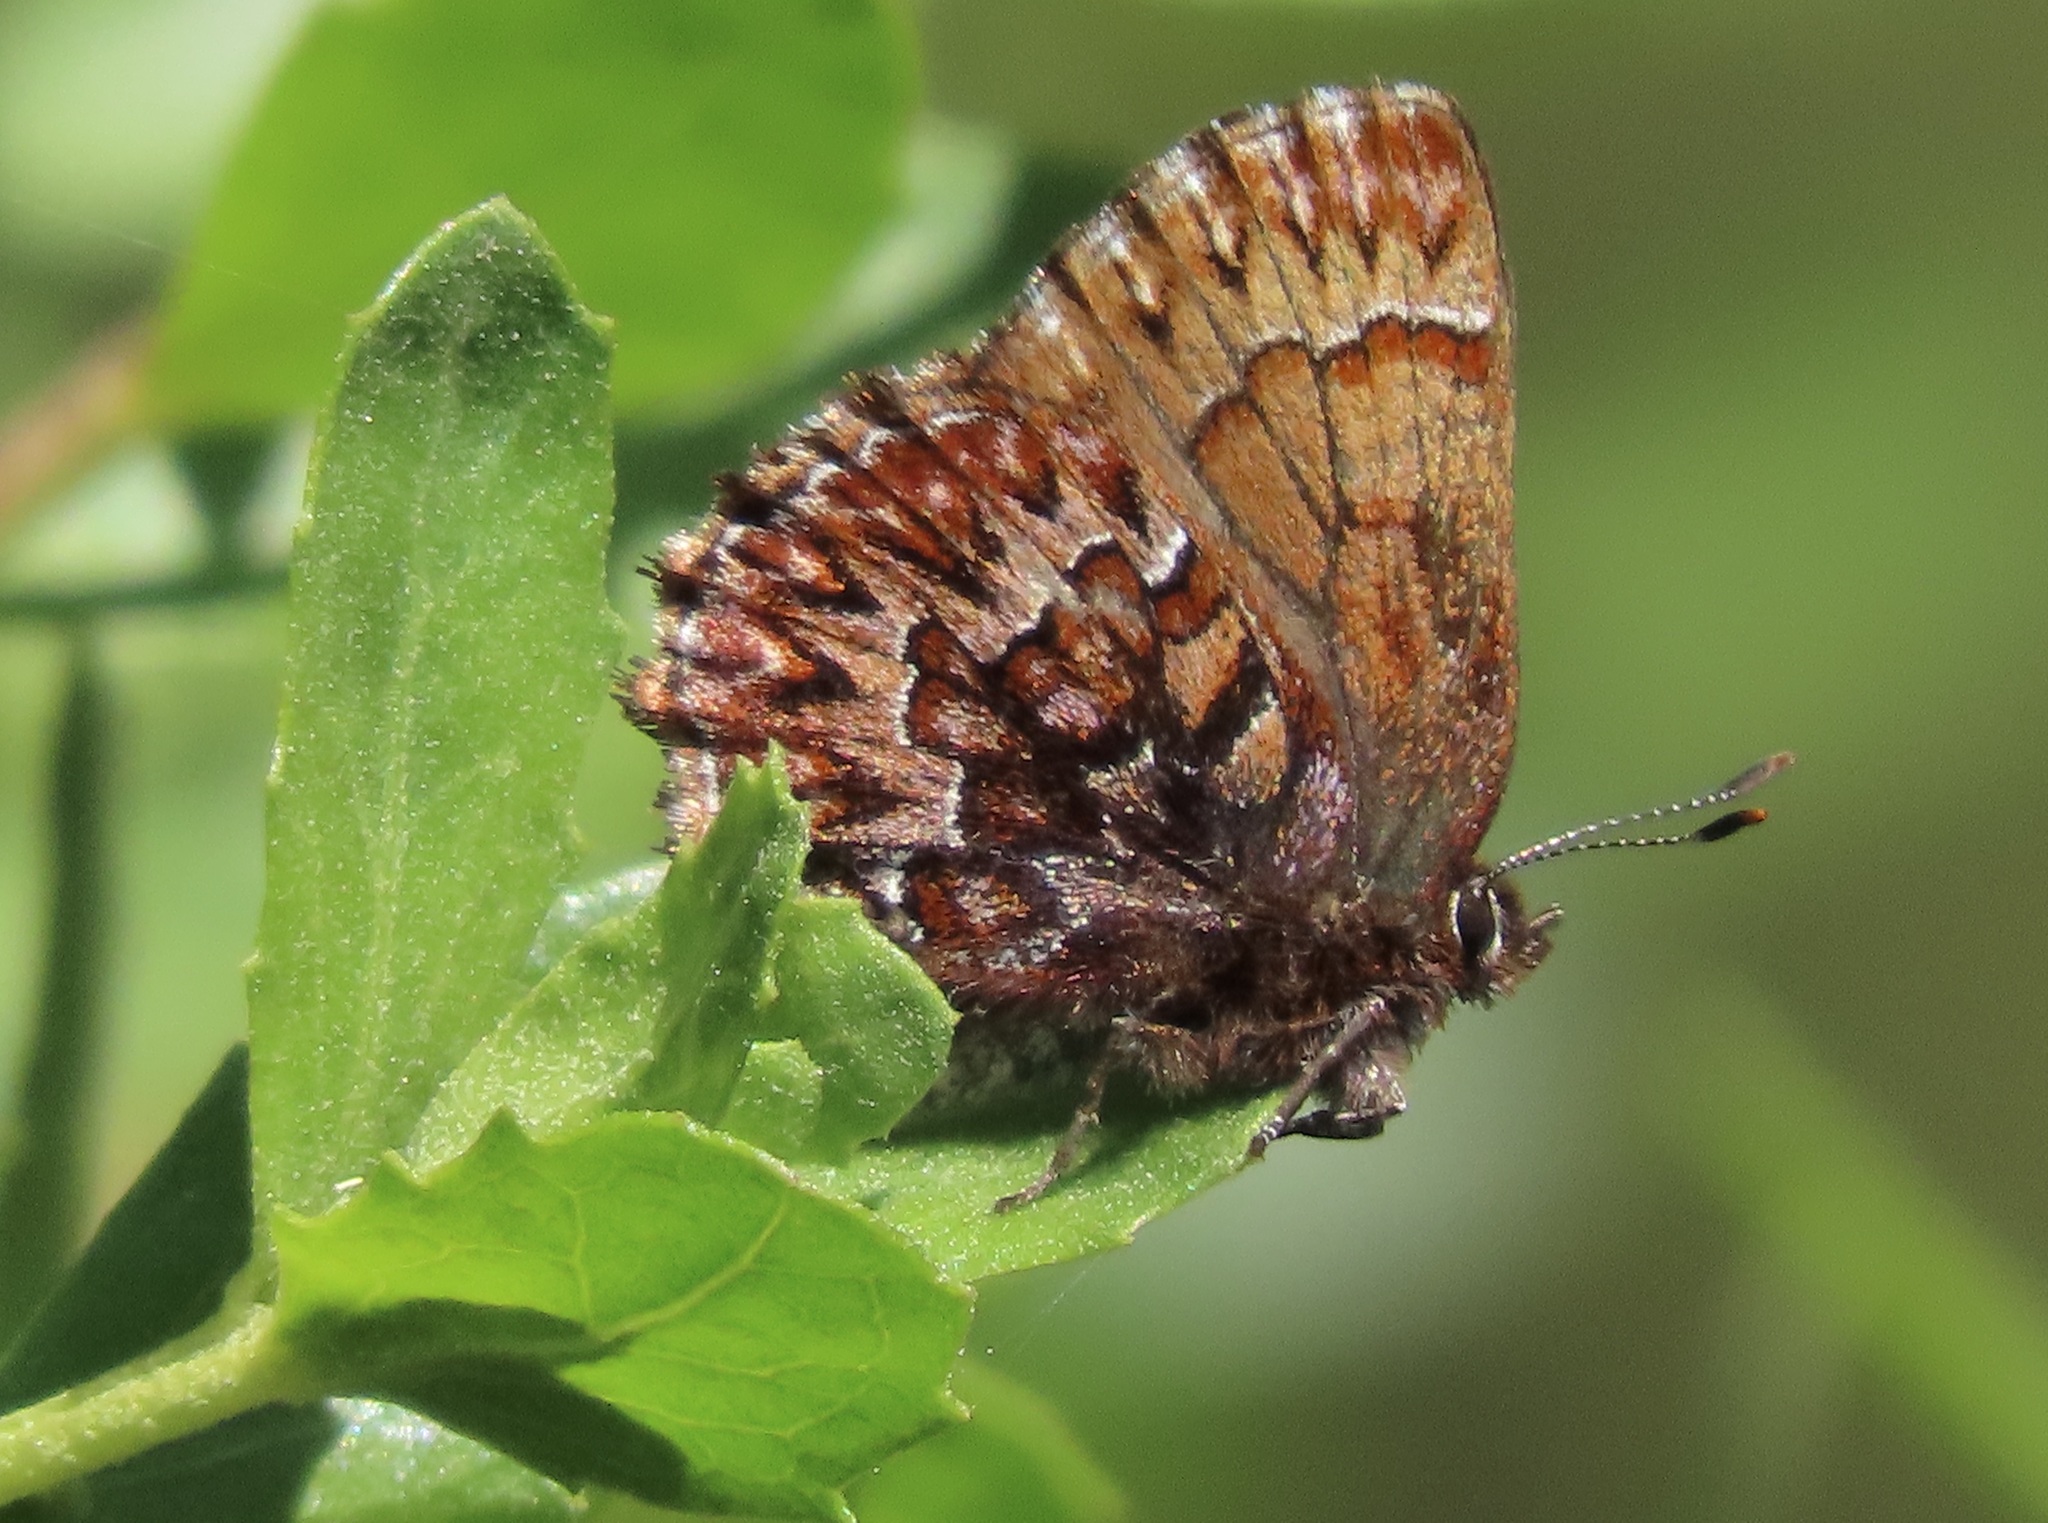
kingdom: Animalia
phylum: Arthropoda
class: Insecta
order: Lepidoptera
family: Lycaenidae
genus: Incisalia
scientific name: Incisalia eryphon
